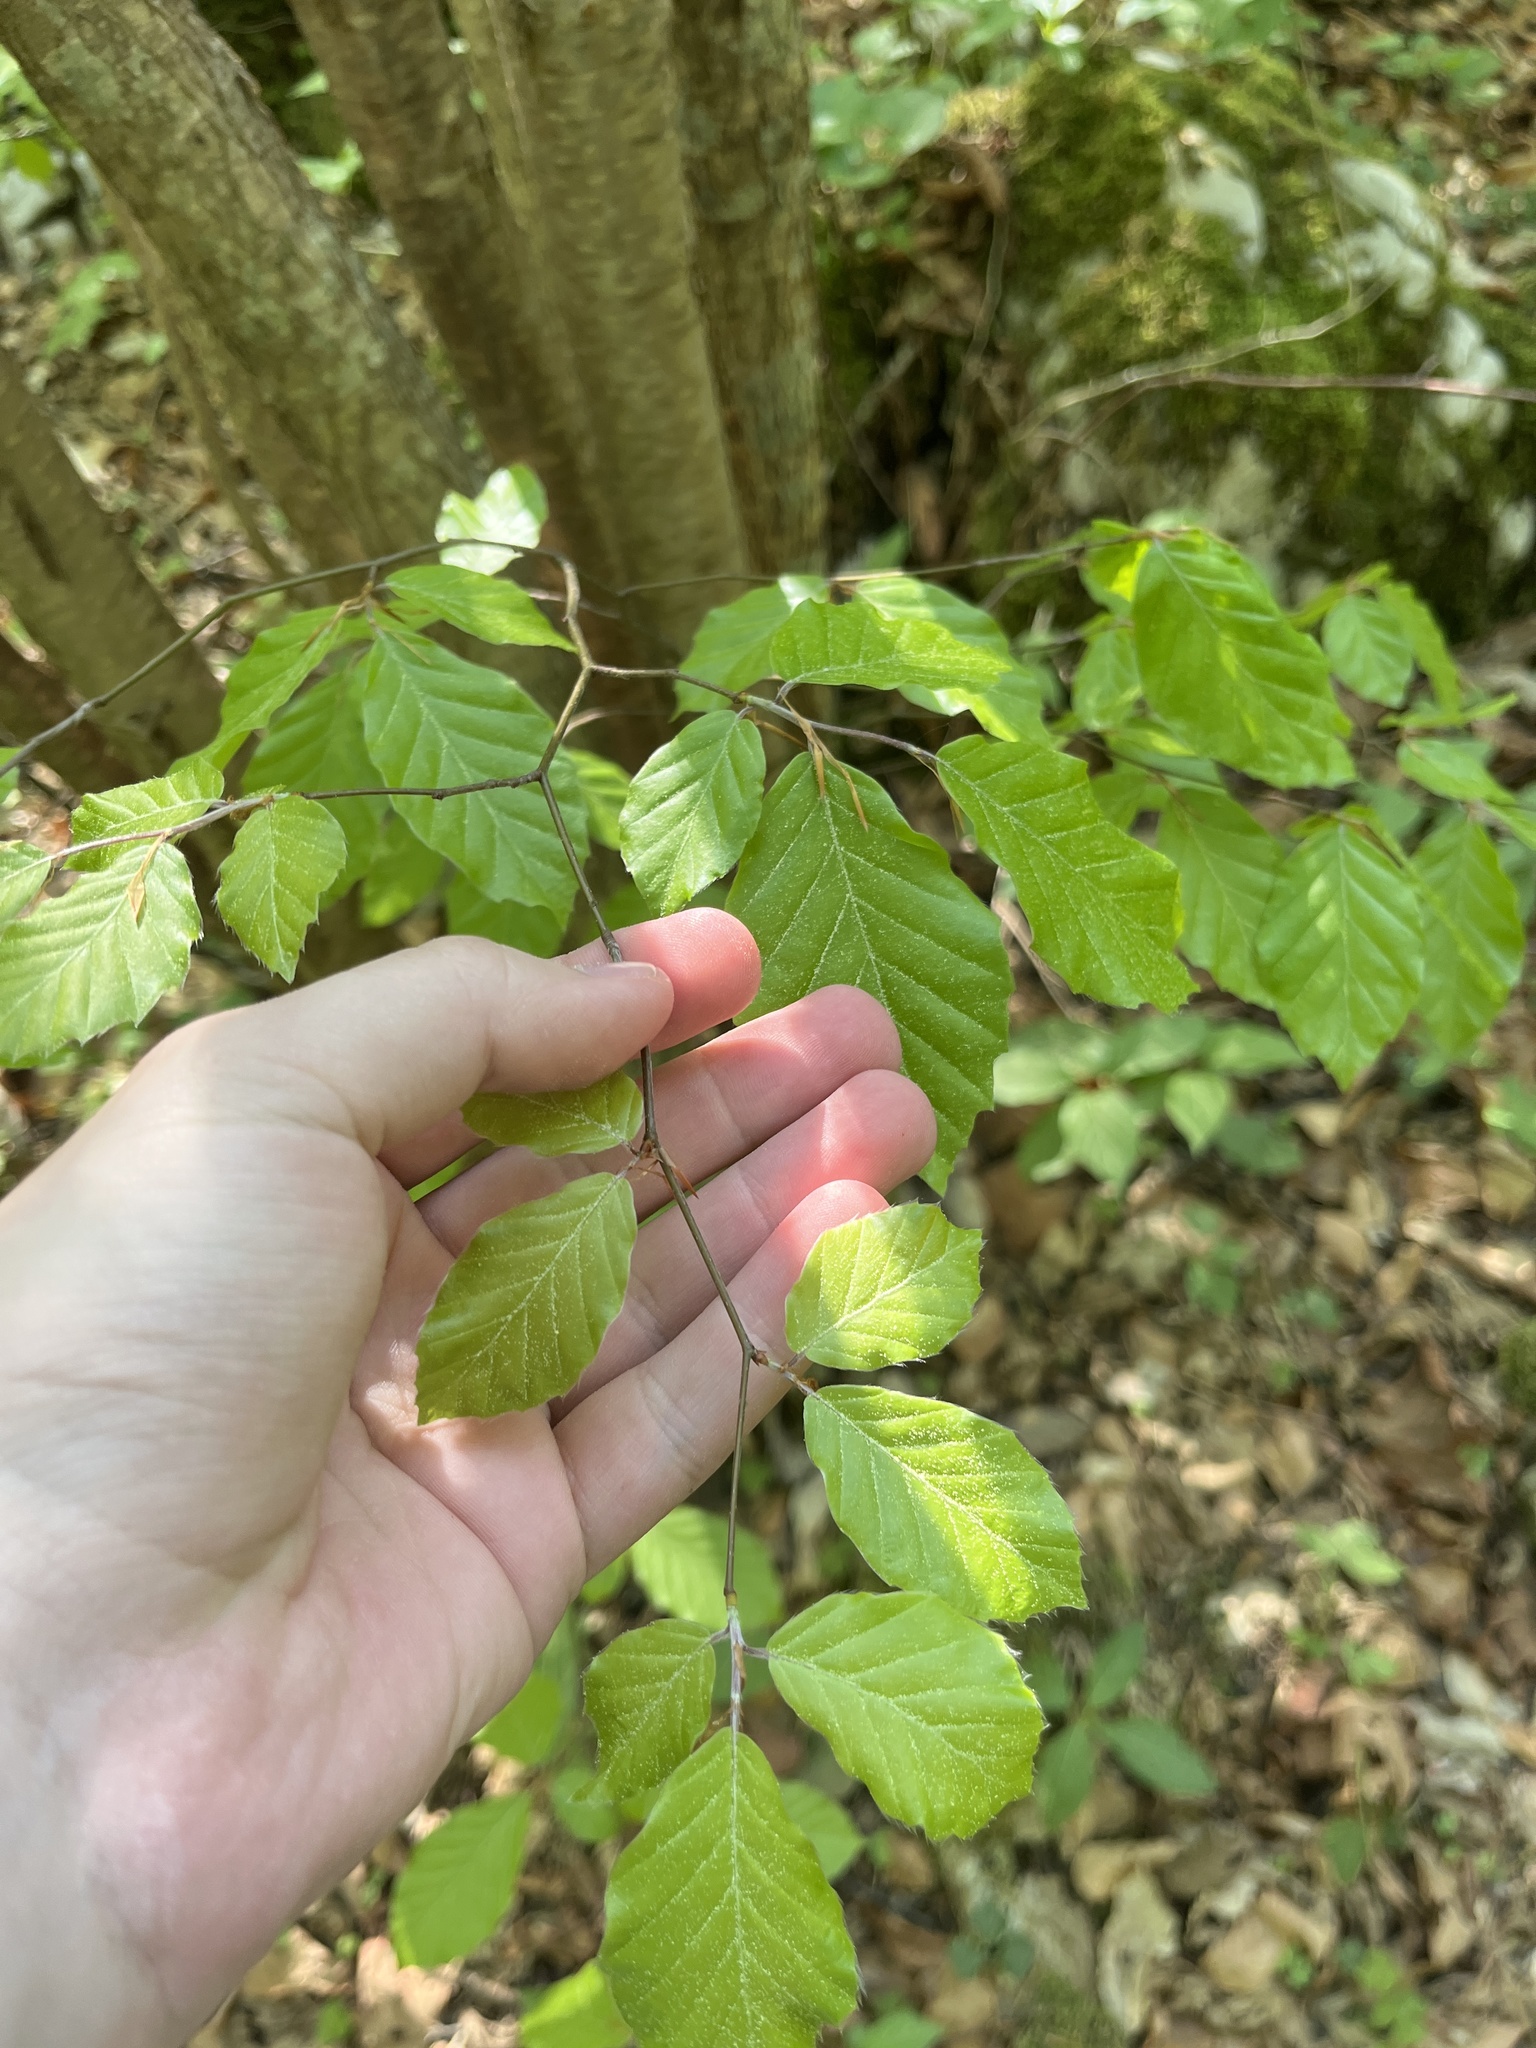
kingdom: Plantae
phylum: Tracheophyta
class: Magnoliopsida
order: Fagales
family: Fagaceae
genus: Fagus
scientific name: Fagus sylvatica
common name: Beech
